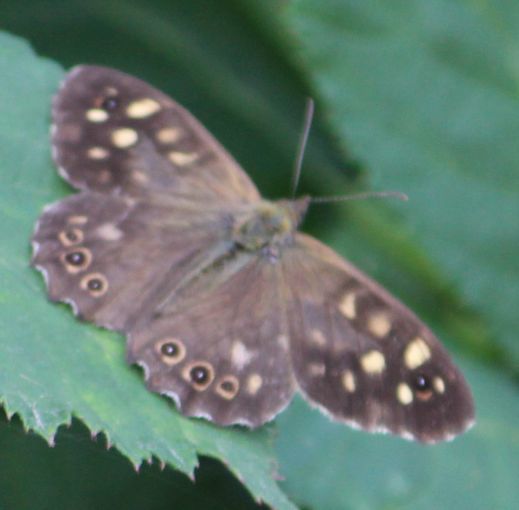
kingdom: Animalia
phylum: Arthropoda
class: Insecta
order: Lepidoptera
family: Nymphalidae
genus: Pararge
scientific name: Pararge aegeria
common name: Speckled wood
